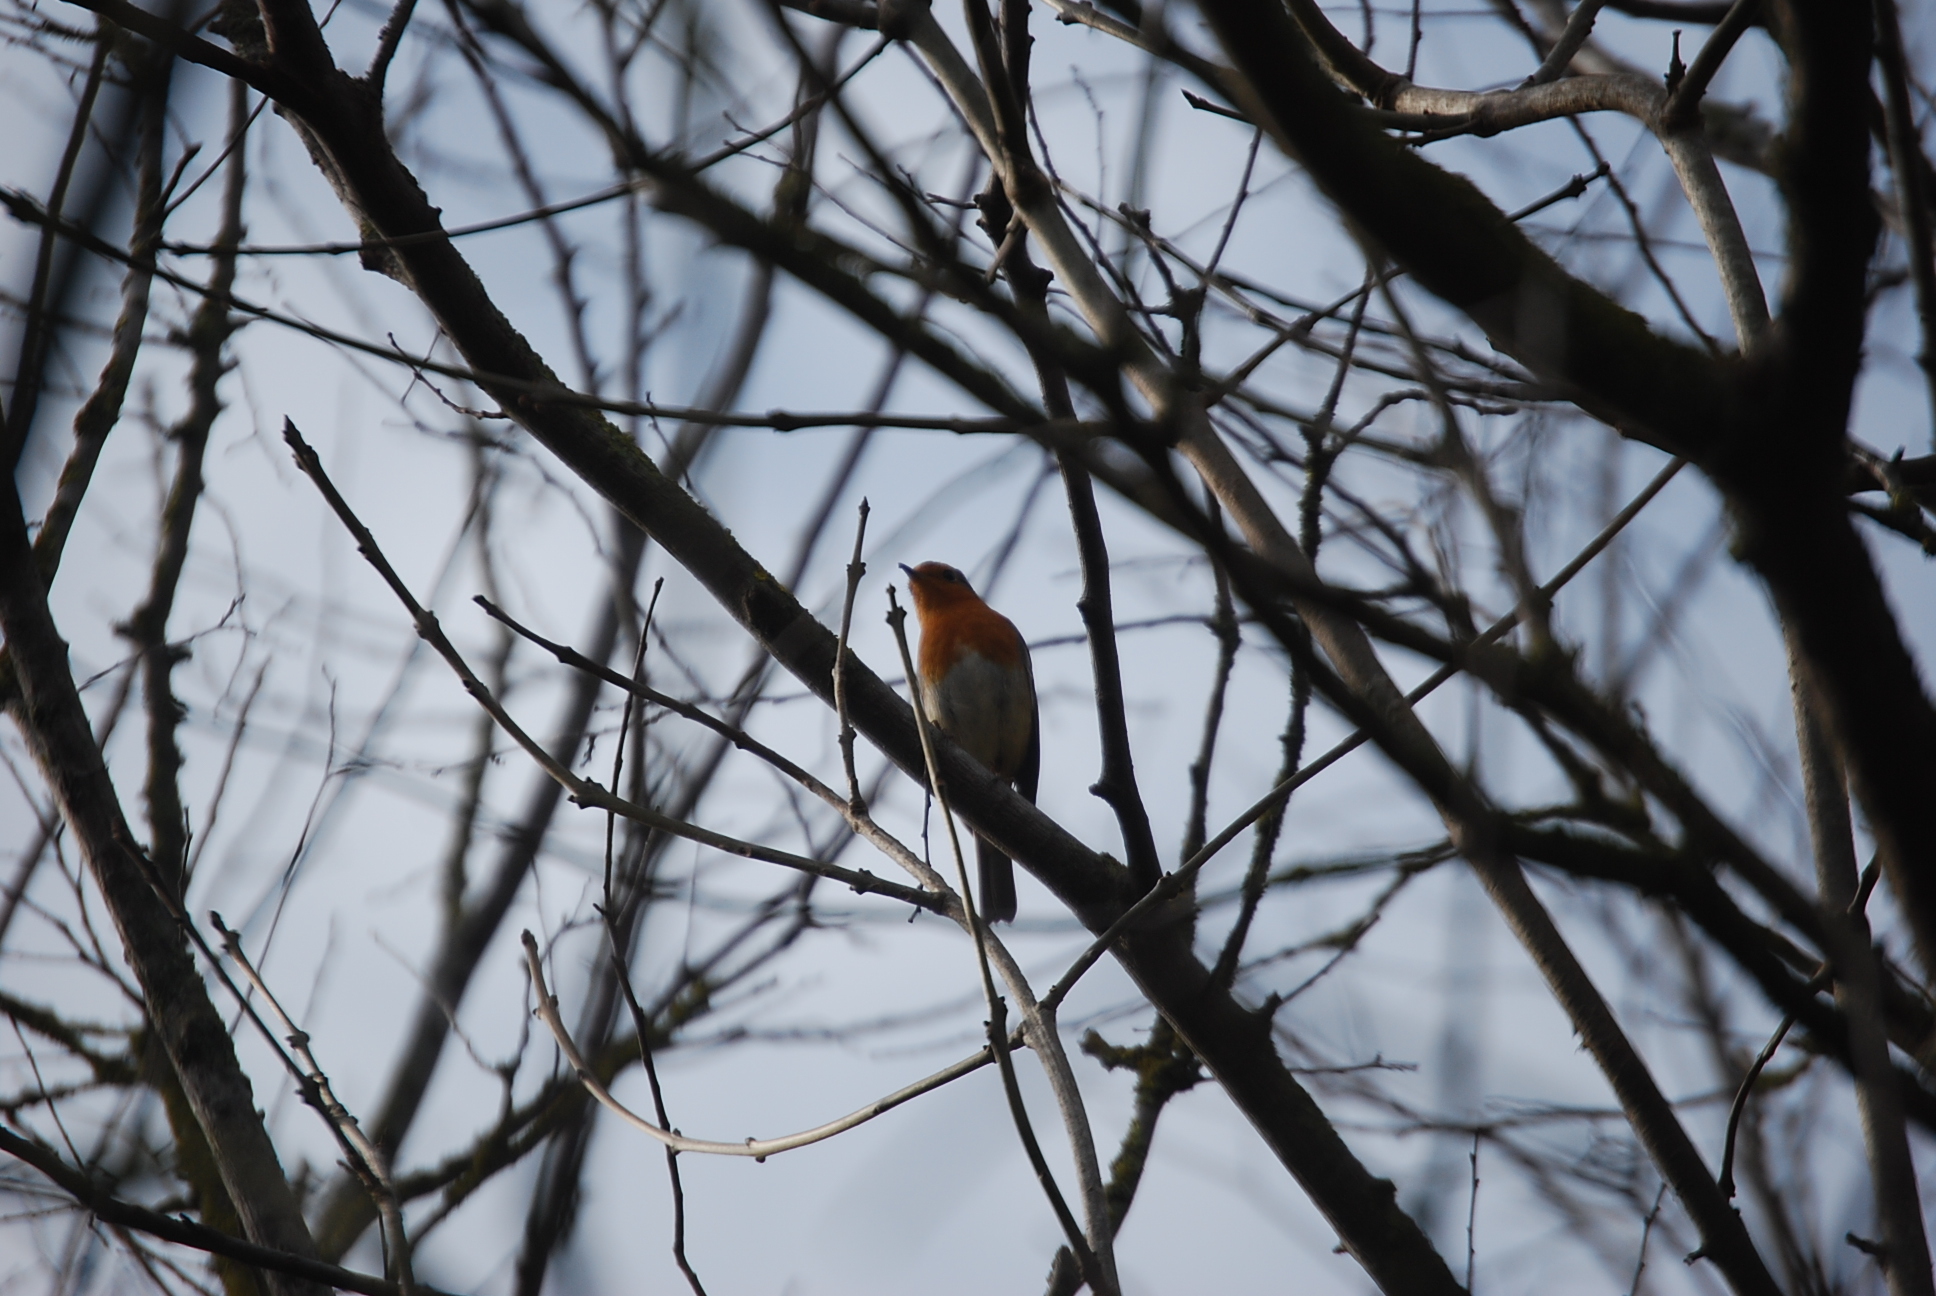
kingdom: Animalia
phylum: Chordata
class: Aves
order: Passeriformes
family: Muscicapidae
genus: Erithacus
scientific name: Erithacus rubecula
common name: European robin
